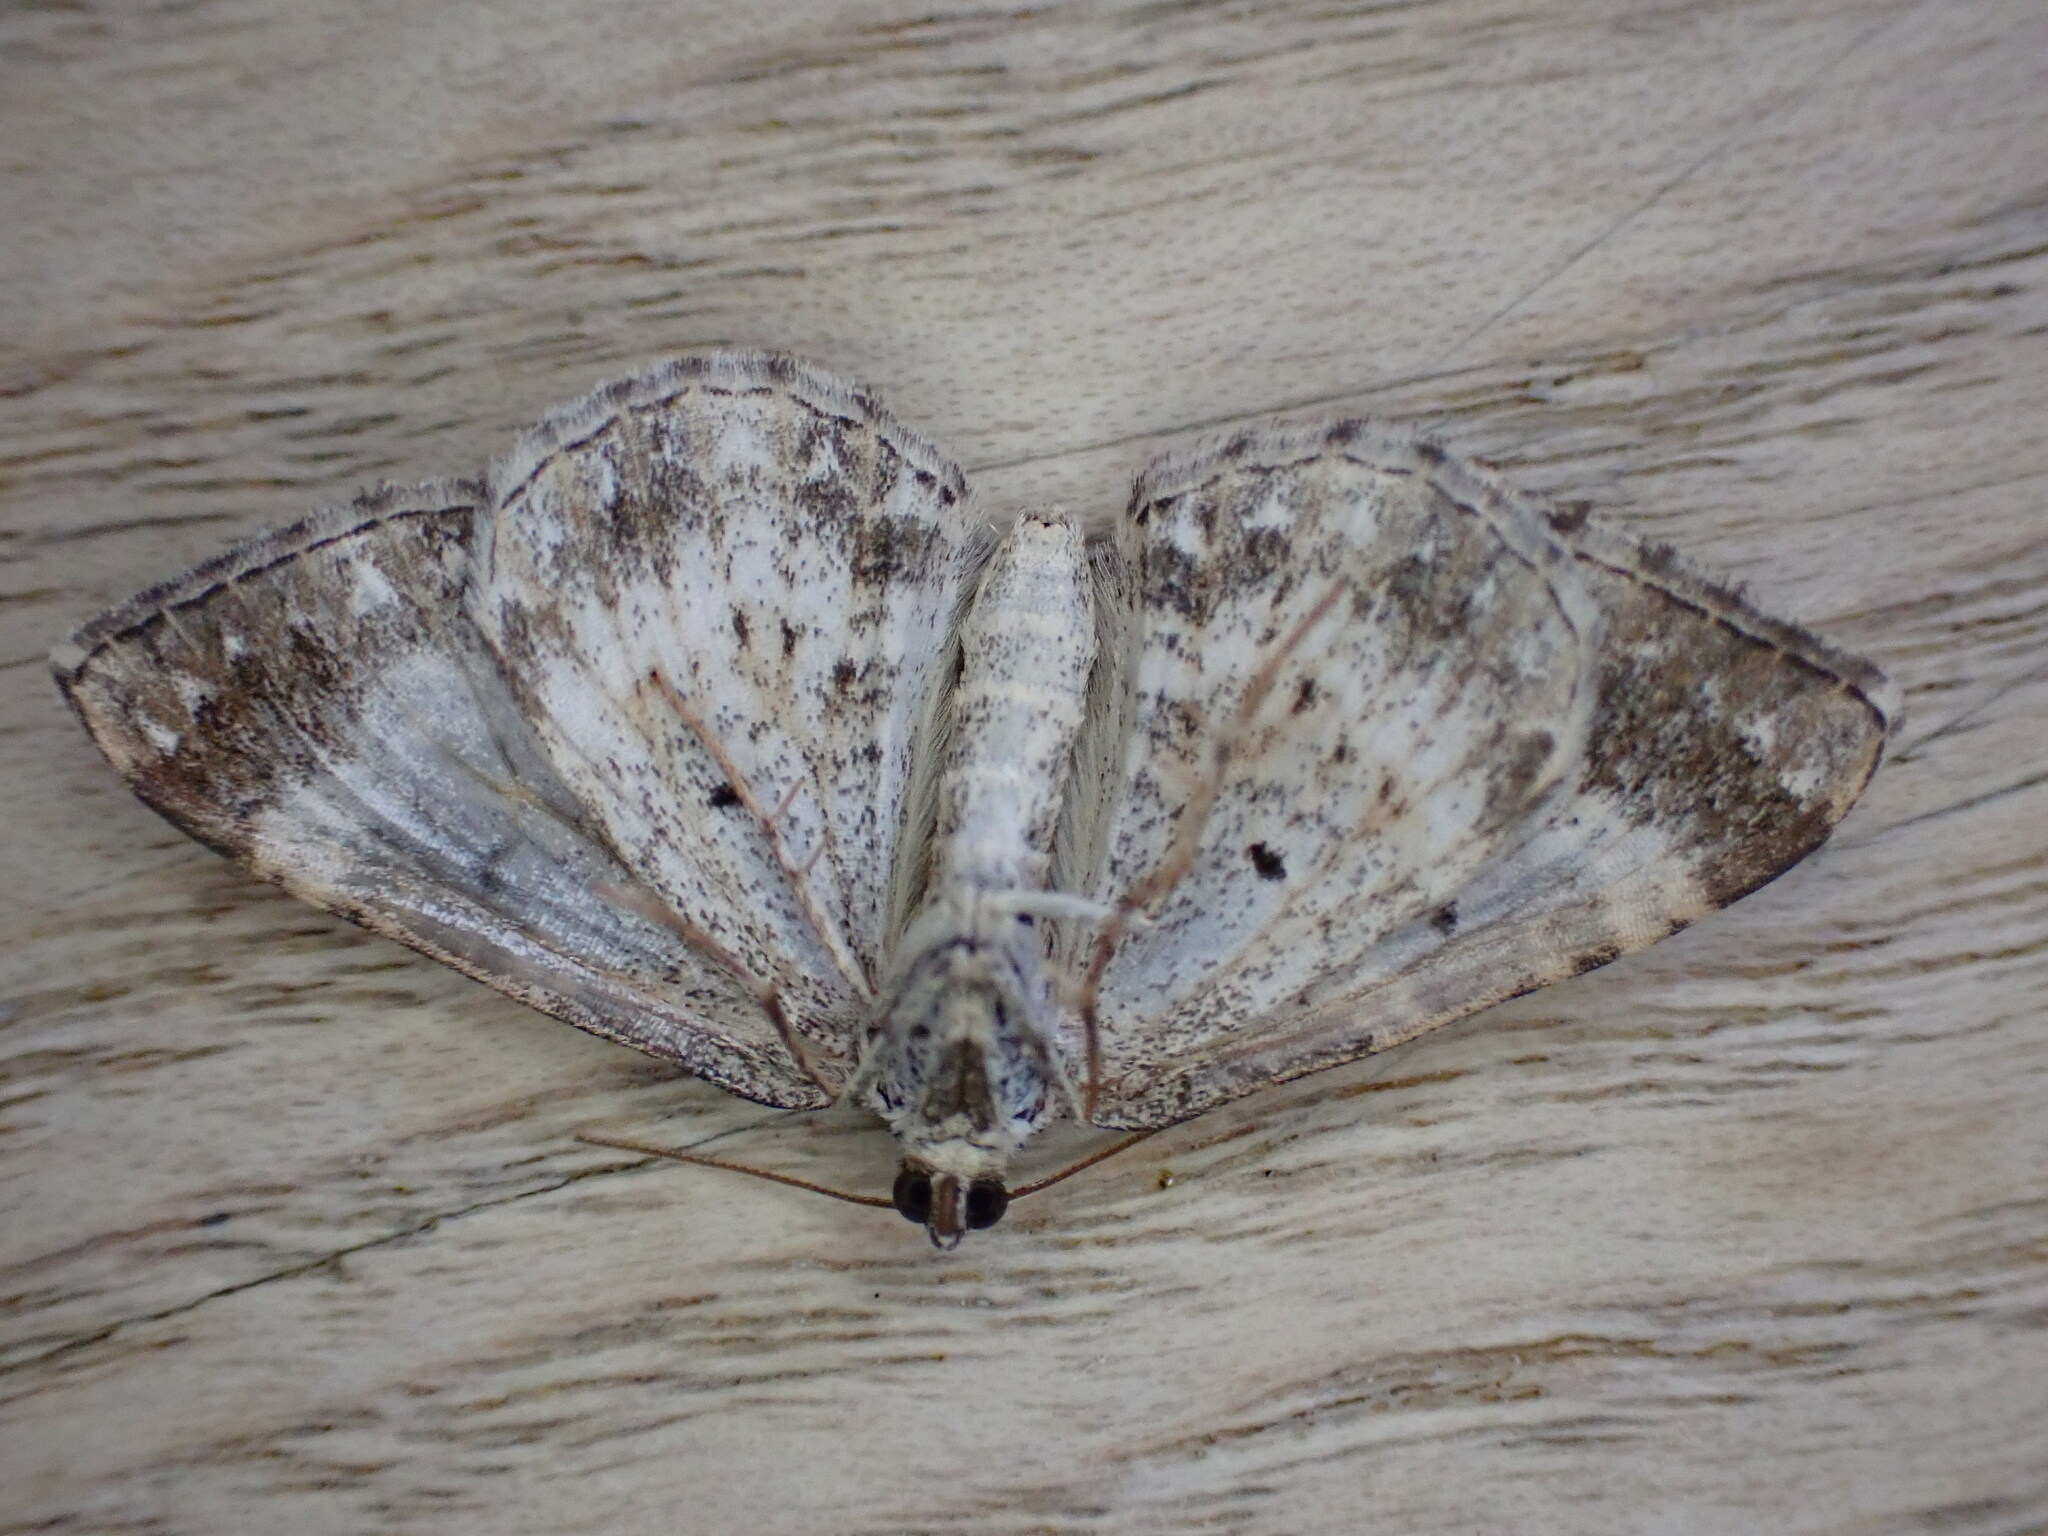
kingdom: Animalia
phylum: Arthropoda
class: Insecta
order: Lepidoptera
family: Geometridae
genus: Epirrhoe
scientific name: Epirrhoe alternata
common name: Common carpet
